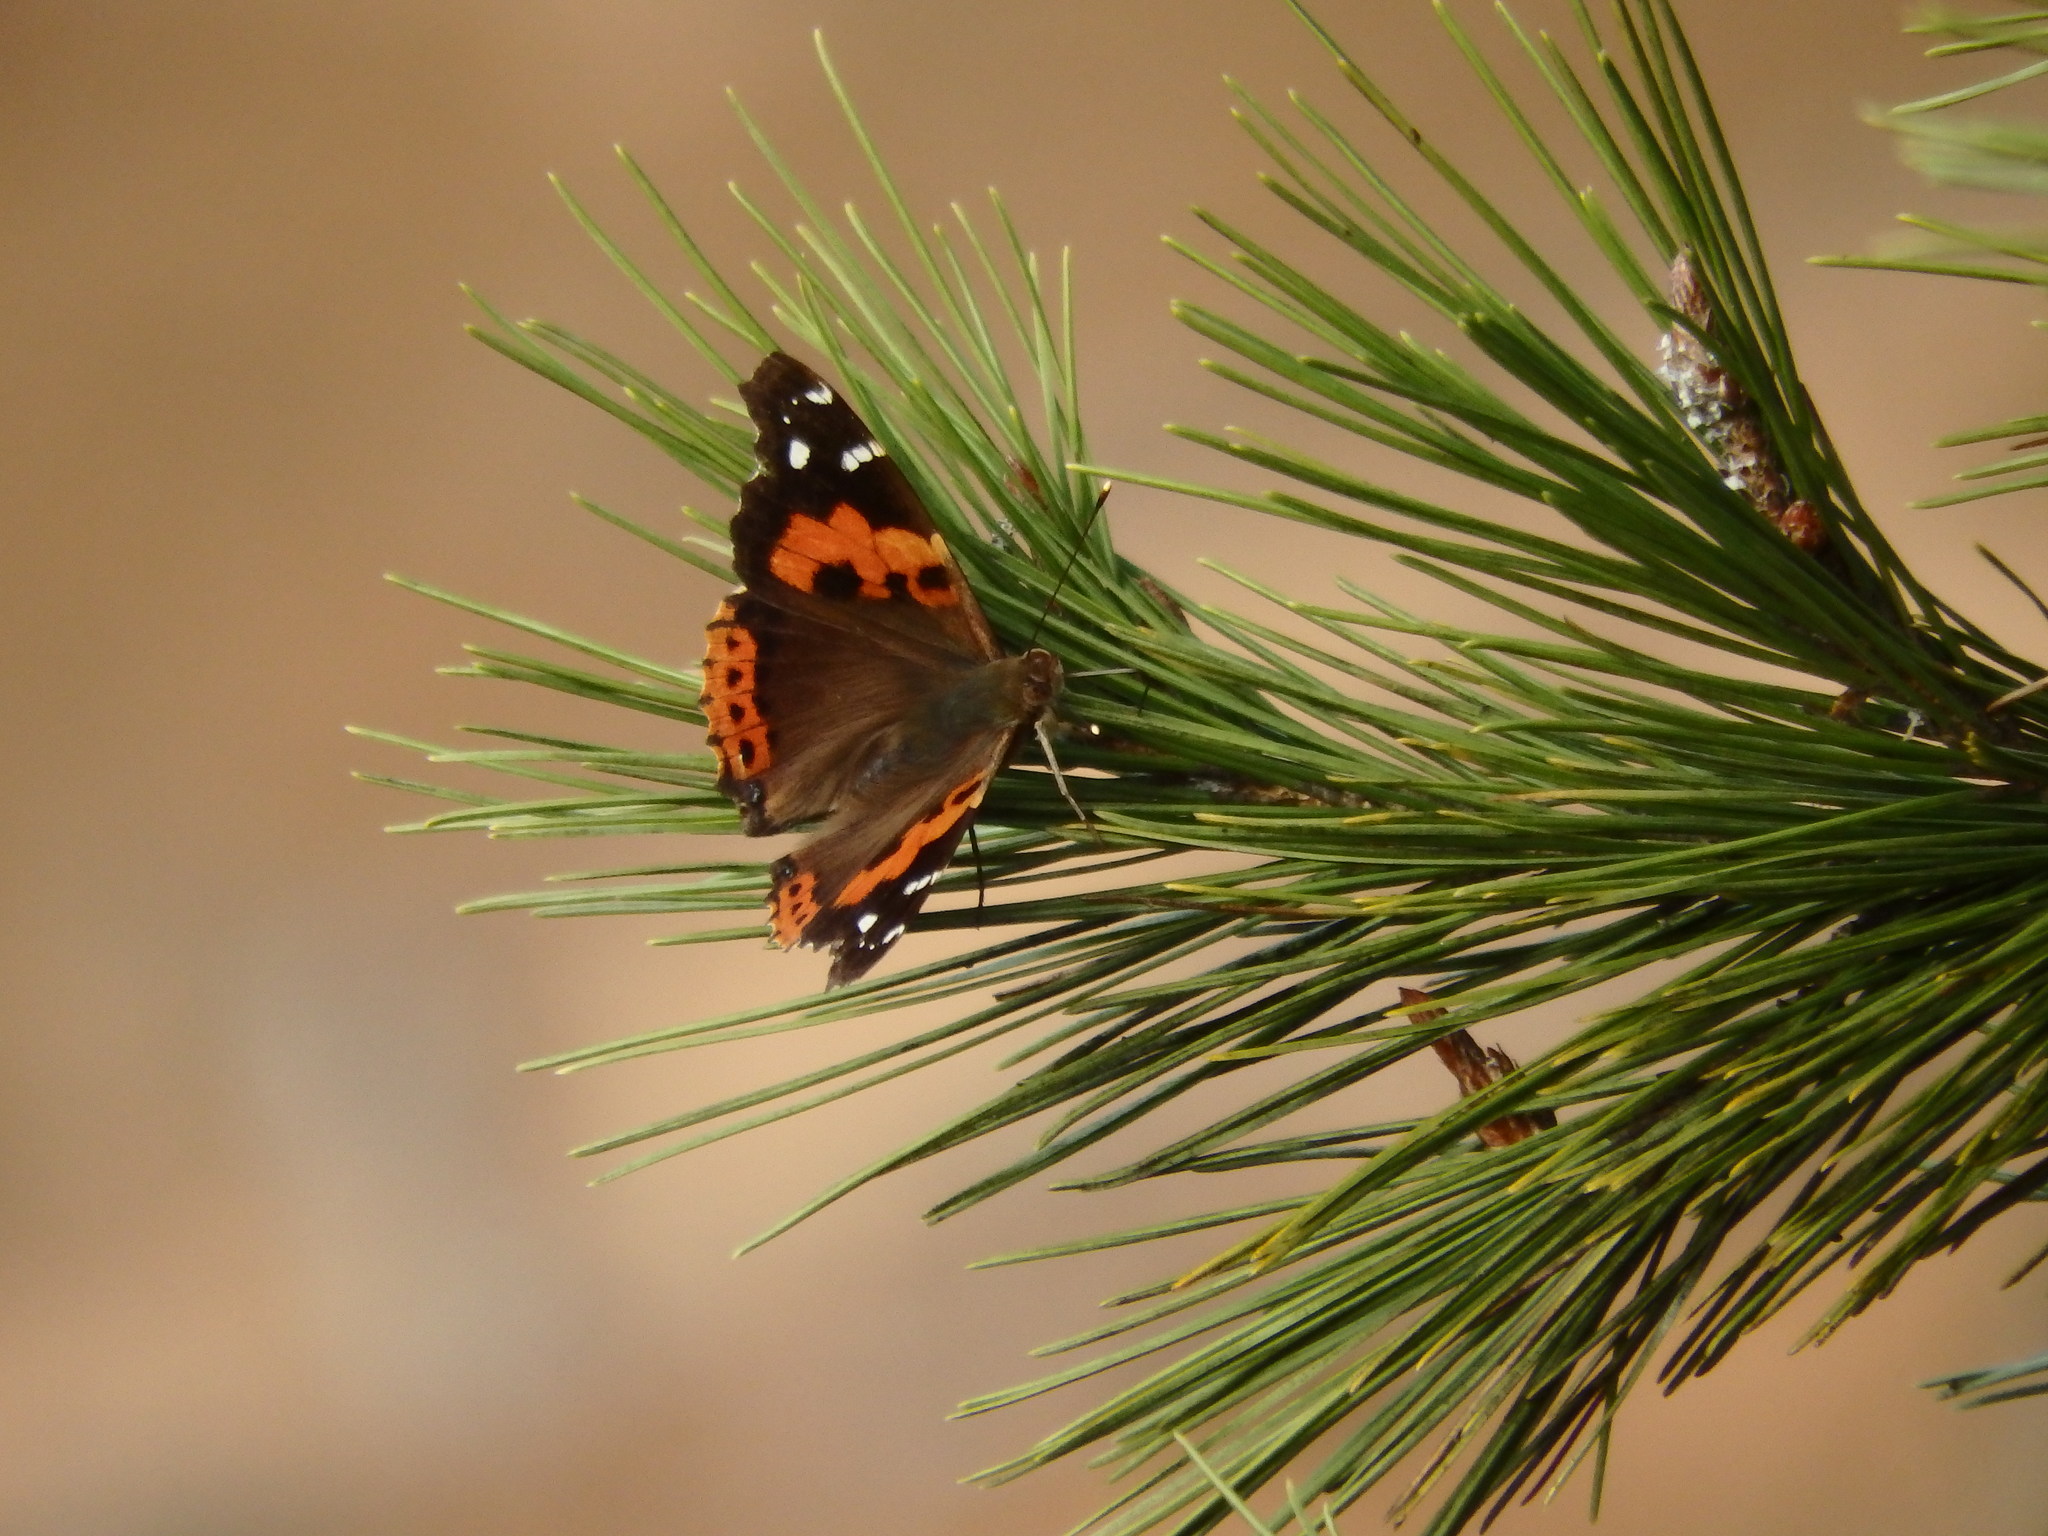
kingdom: Animalia
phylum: Arthropoda
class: Insecta
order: Lepidoptera
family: Nymphalidae
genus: Vanessa
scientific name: Vanessa vulcania
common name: Canary red admiral
